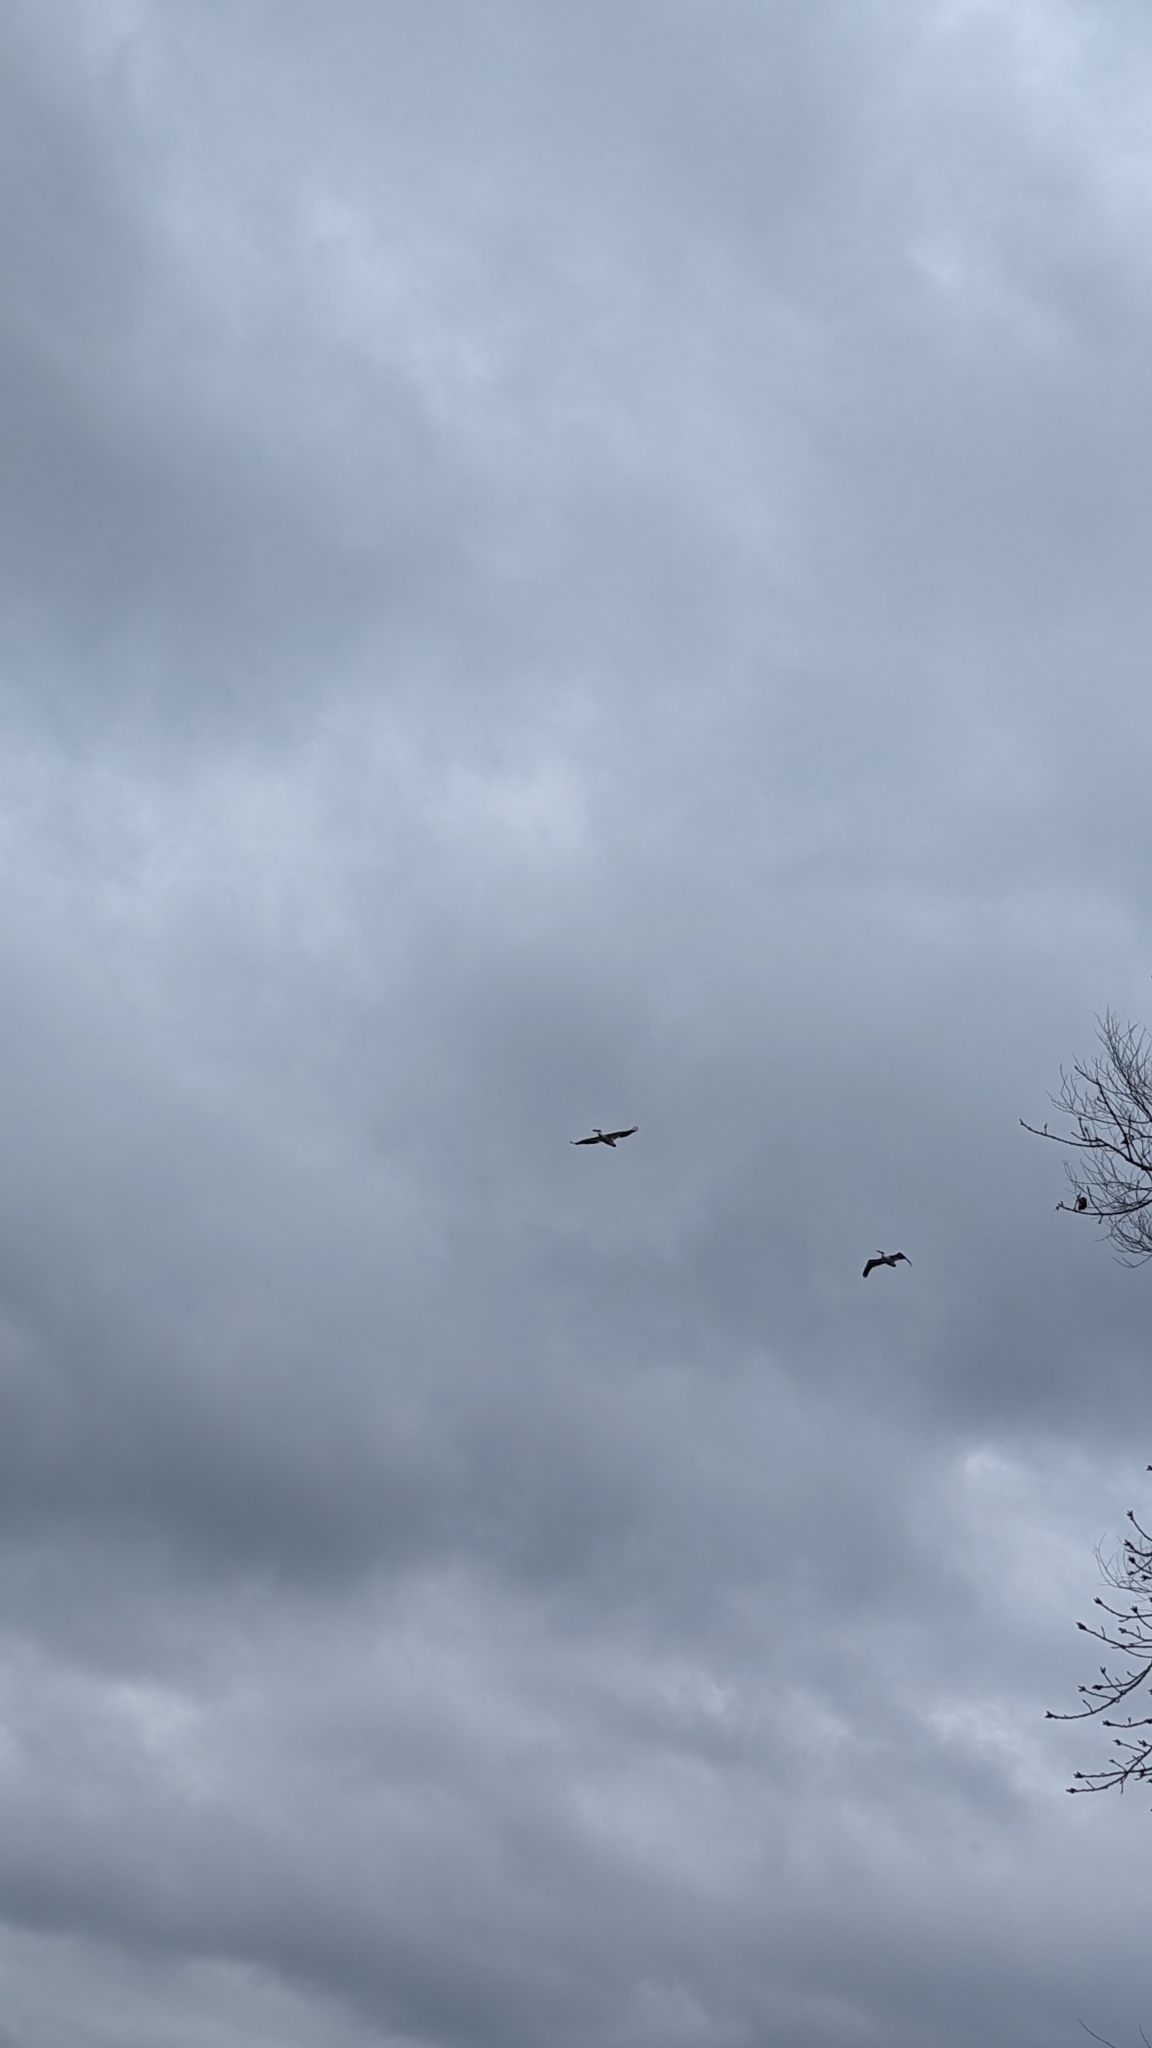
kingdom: Animalia
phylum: Chordata
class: Aves
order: Pelecaniformes
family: Pelecanidae
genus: Pelecanus
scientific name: Pelecanus erythrorhynchos
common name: American white pelican
